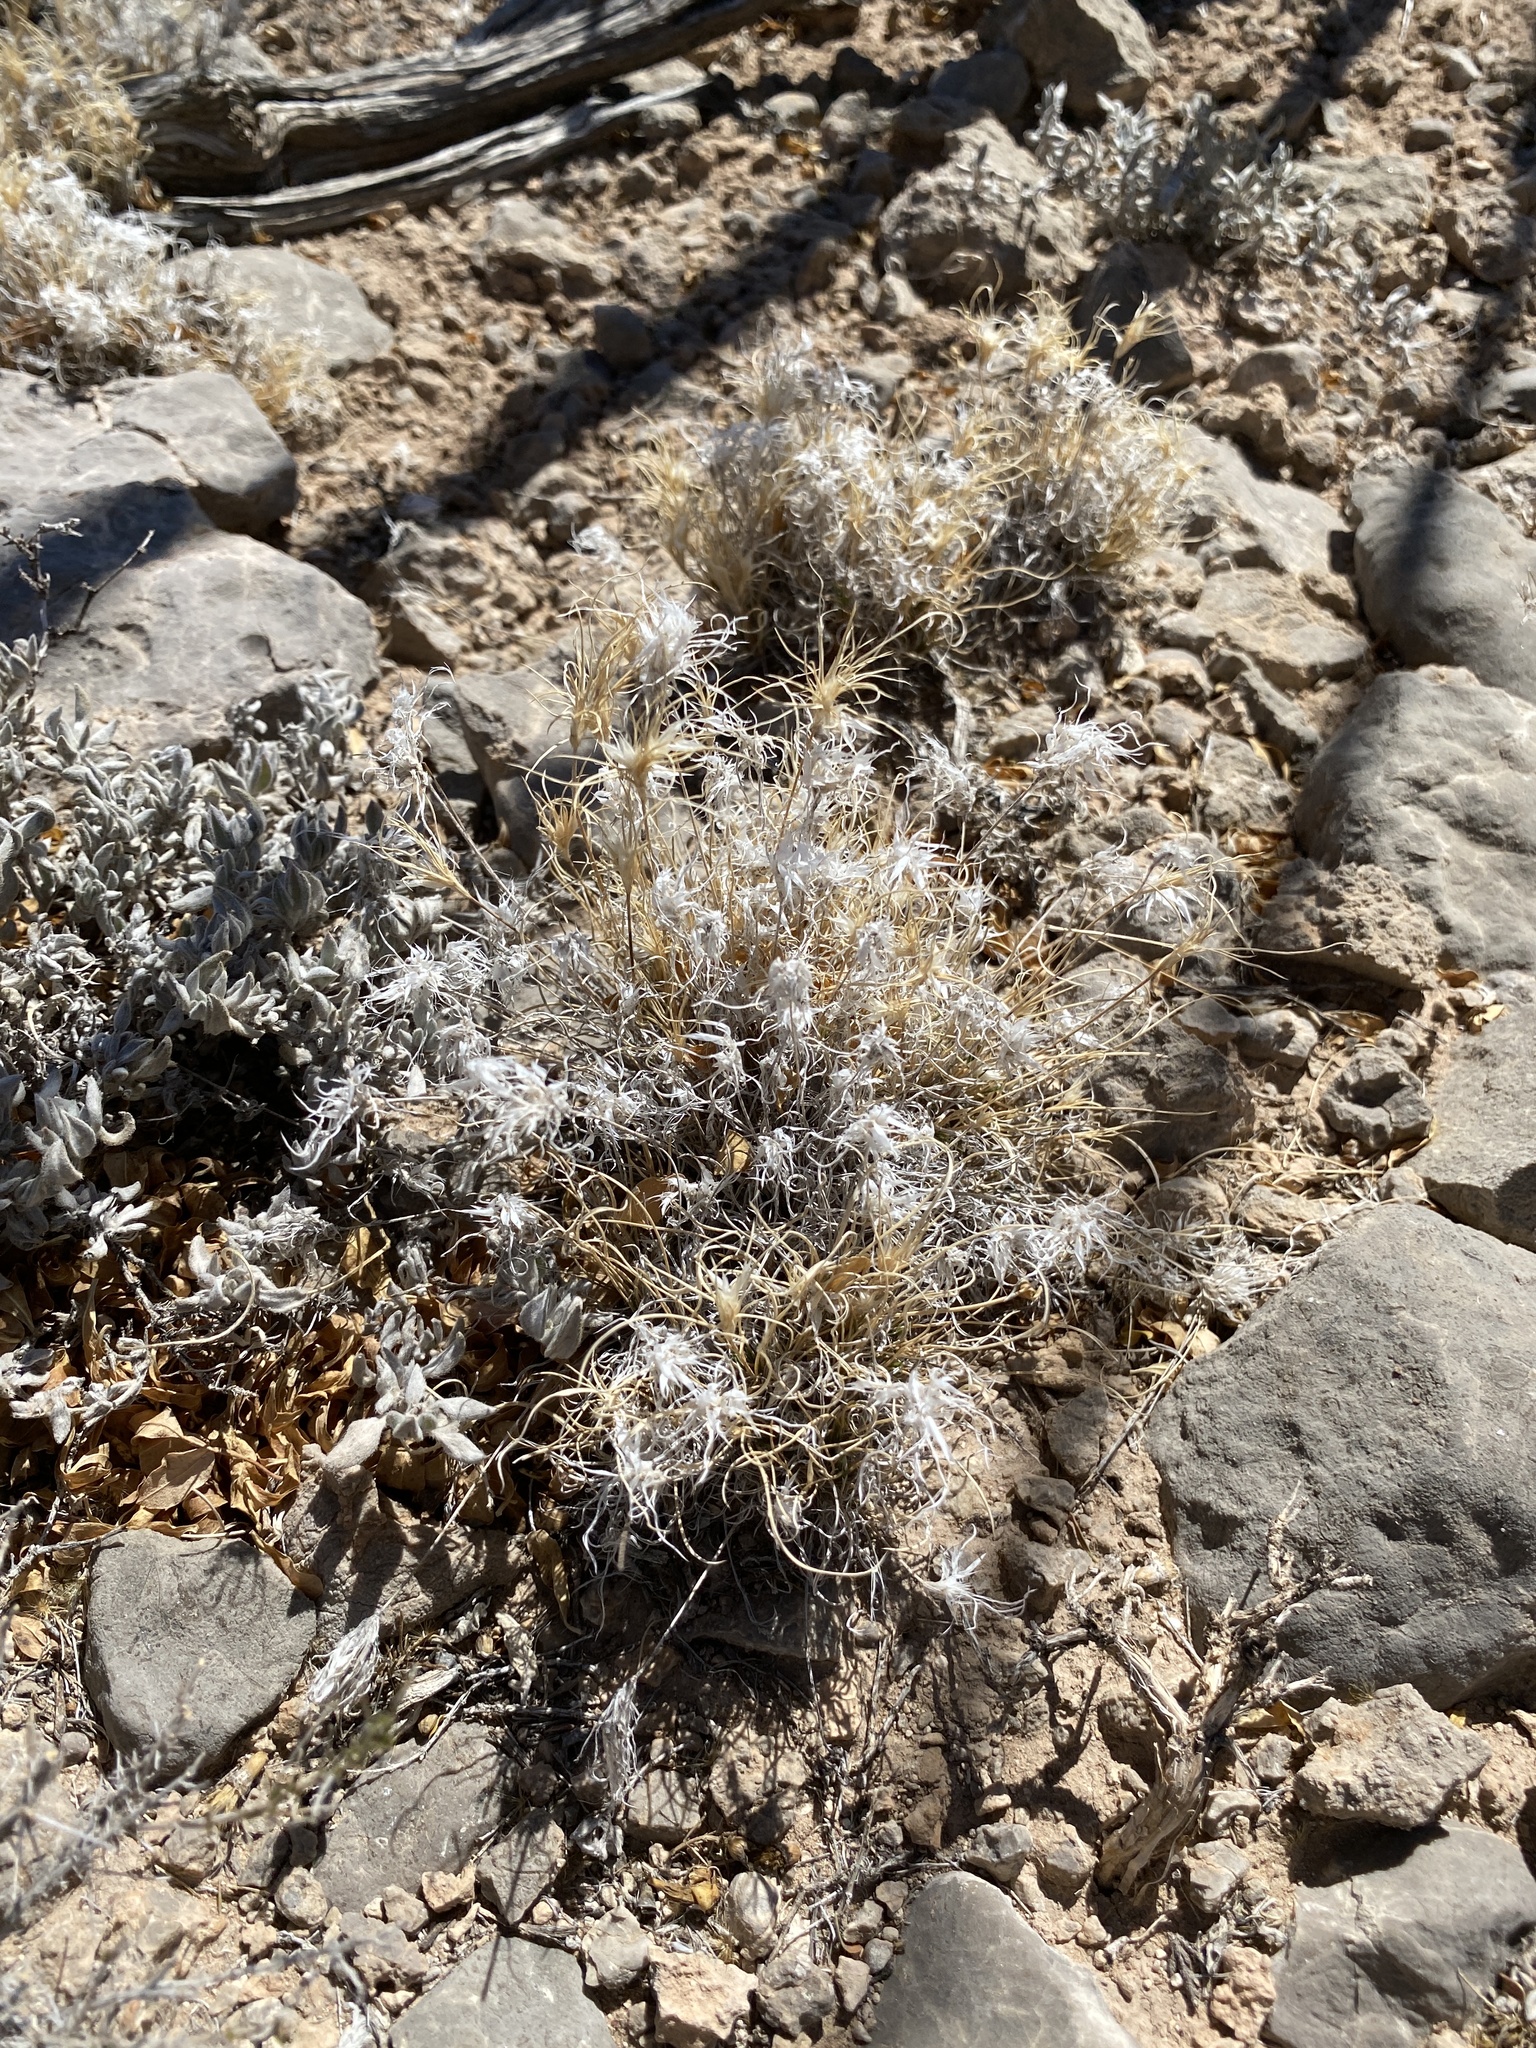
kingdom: Plantae
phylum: Tracheophyta
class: Liliopsida
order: Poales
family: Poaceae
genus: Dasyochloa
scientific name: Dasyochloa pulchella
